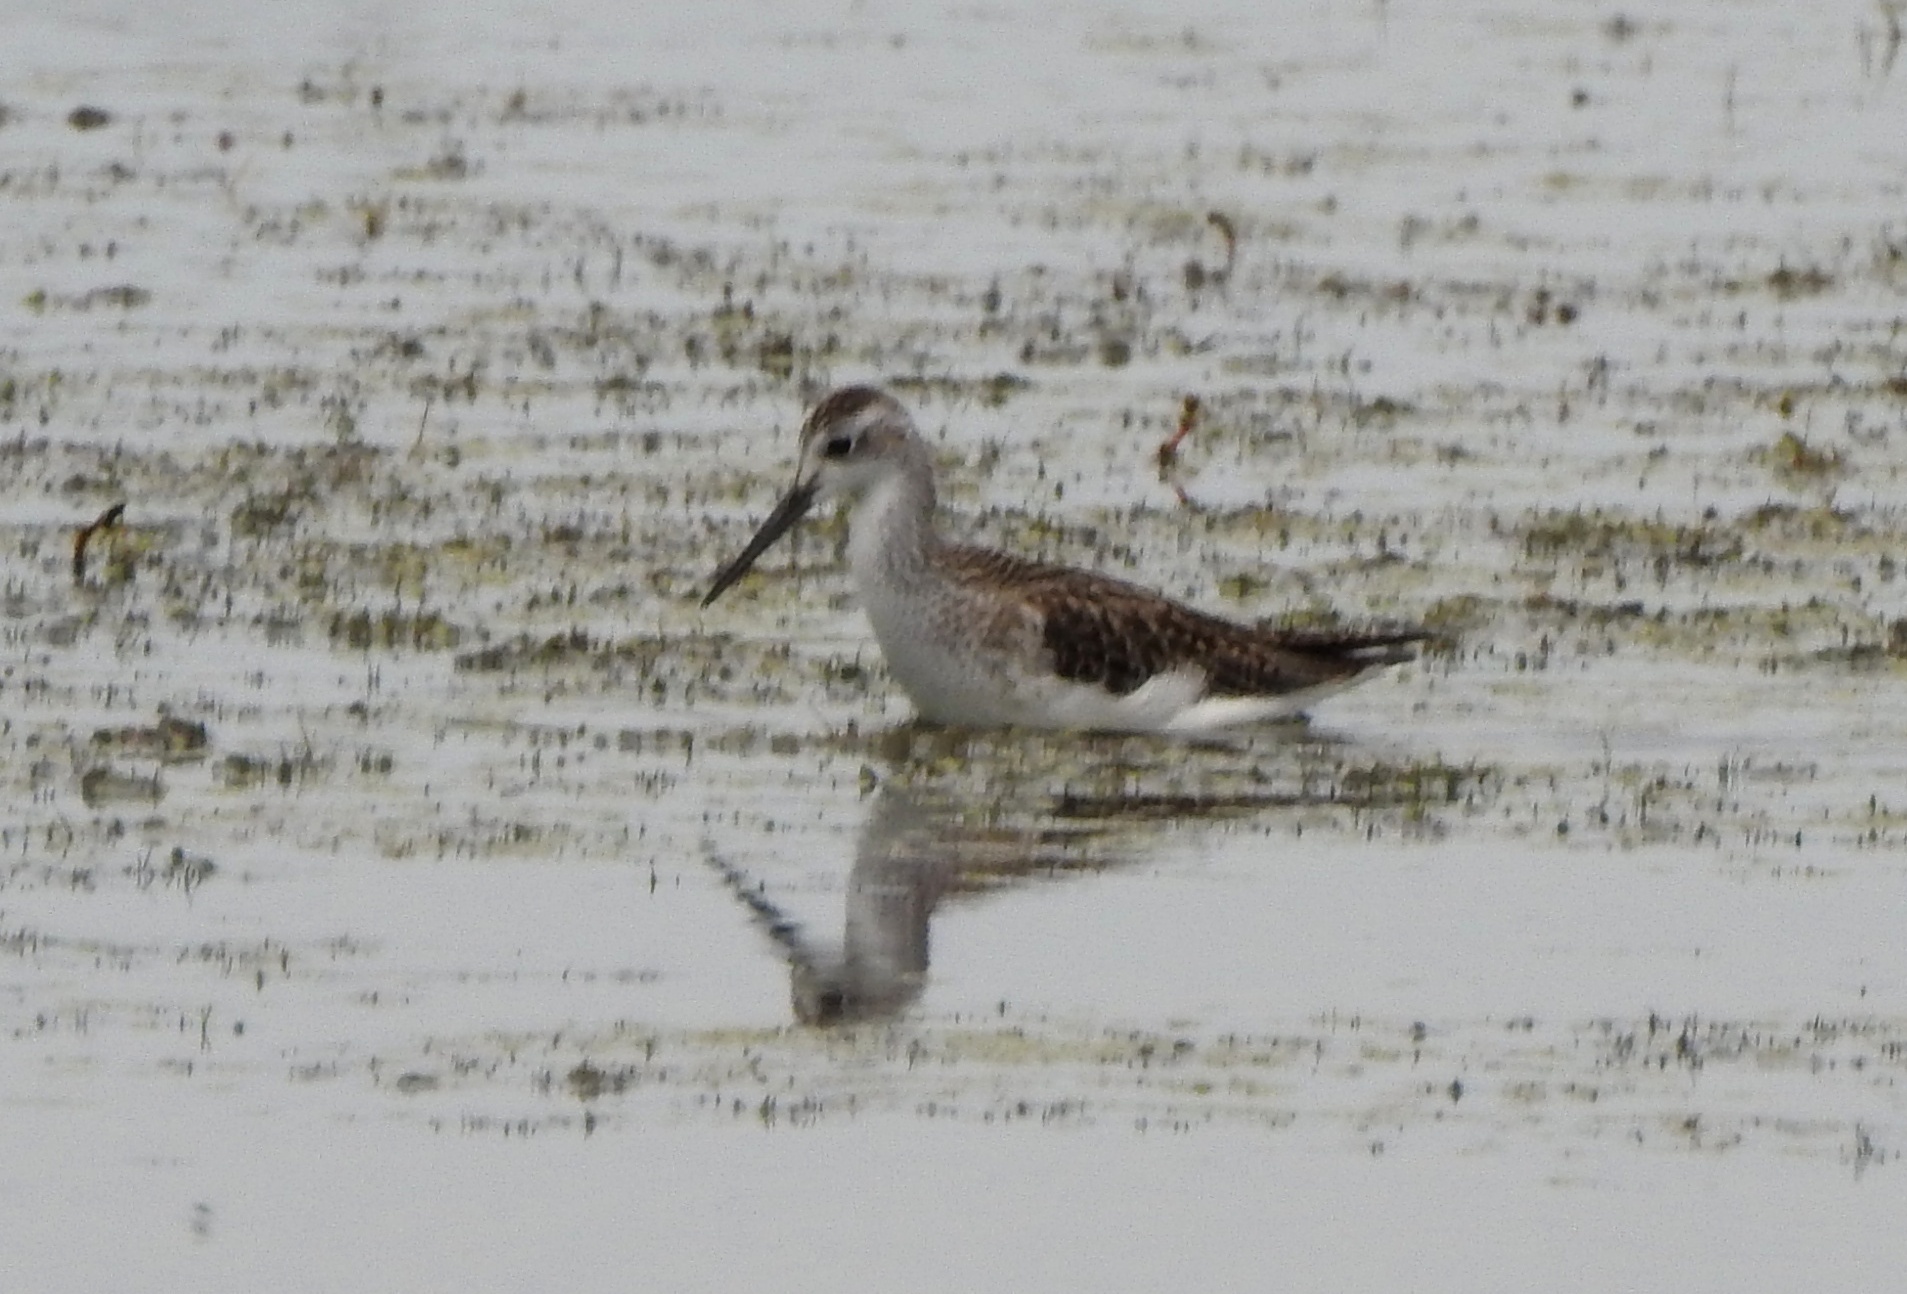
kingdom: Animalia
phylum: Chordata
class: Aves
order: Charadriiformes
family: Scolopacidae
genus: Tringa
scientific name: Tringa nebularia
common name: Common greenshank
